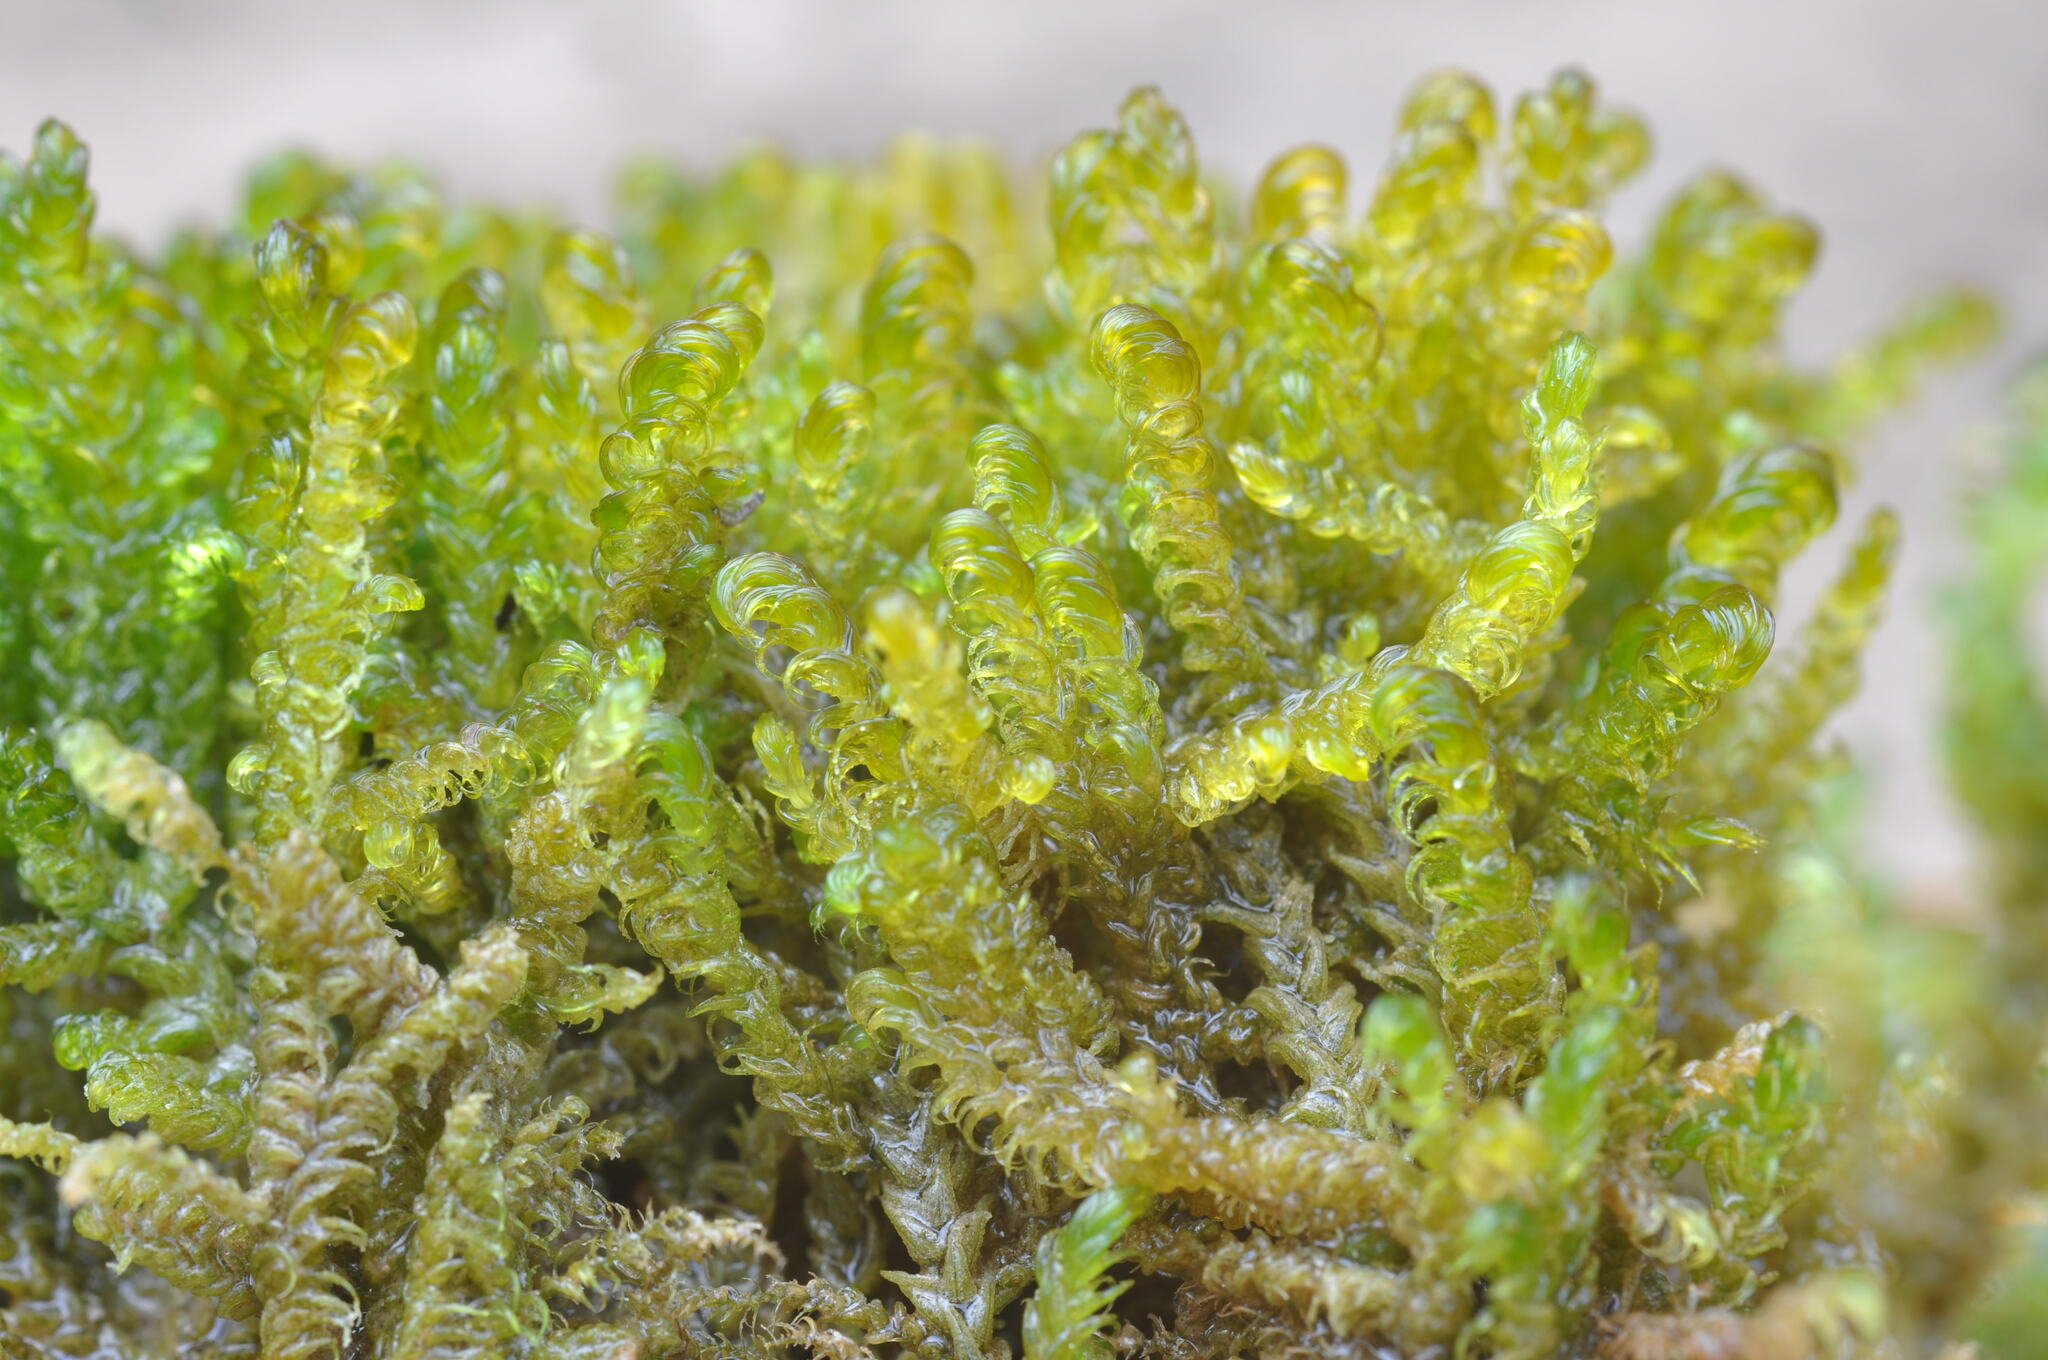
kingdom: Plantae
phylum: Bryophyta
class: Bryopsida
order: Hypnales
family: Amblystegiaceae
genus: Palustriella
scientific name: Palustriella falcata
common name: Curled hook-moss
